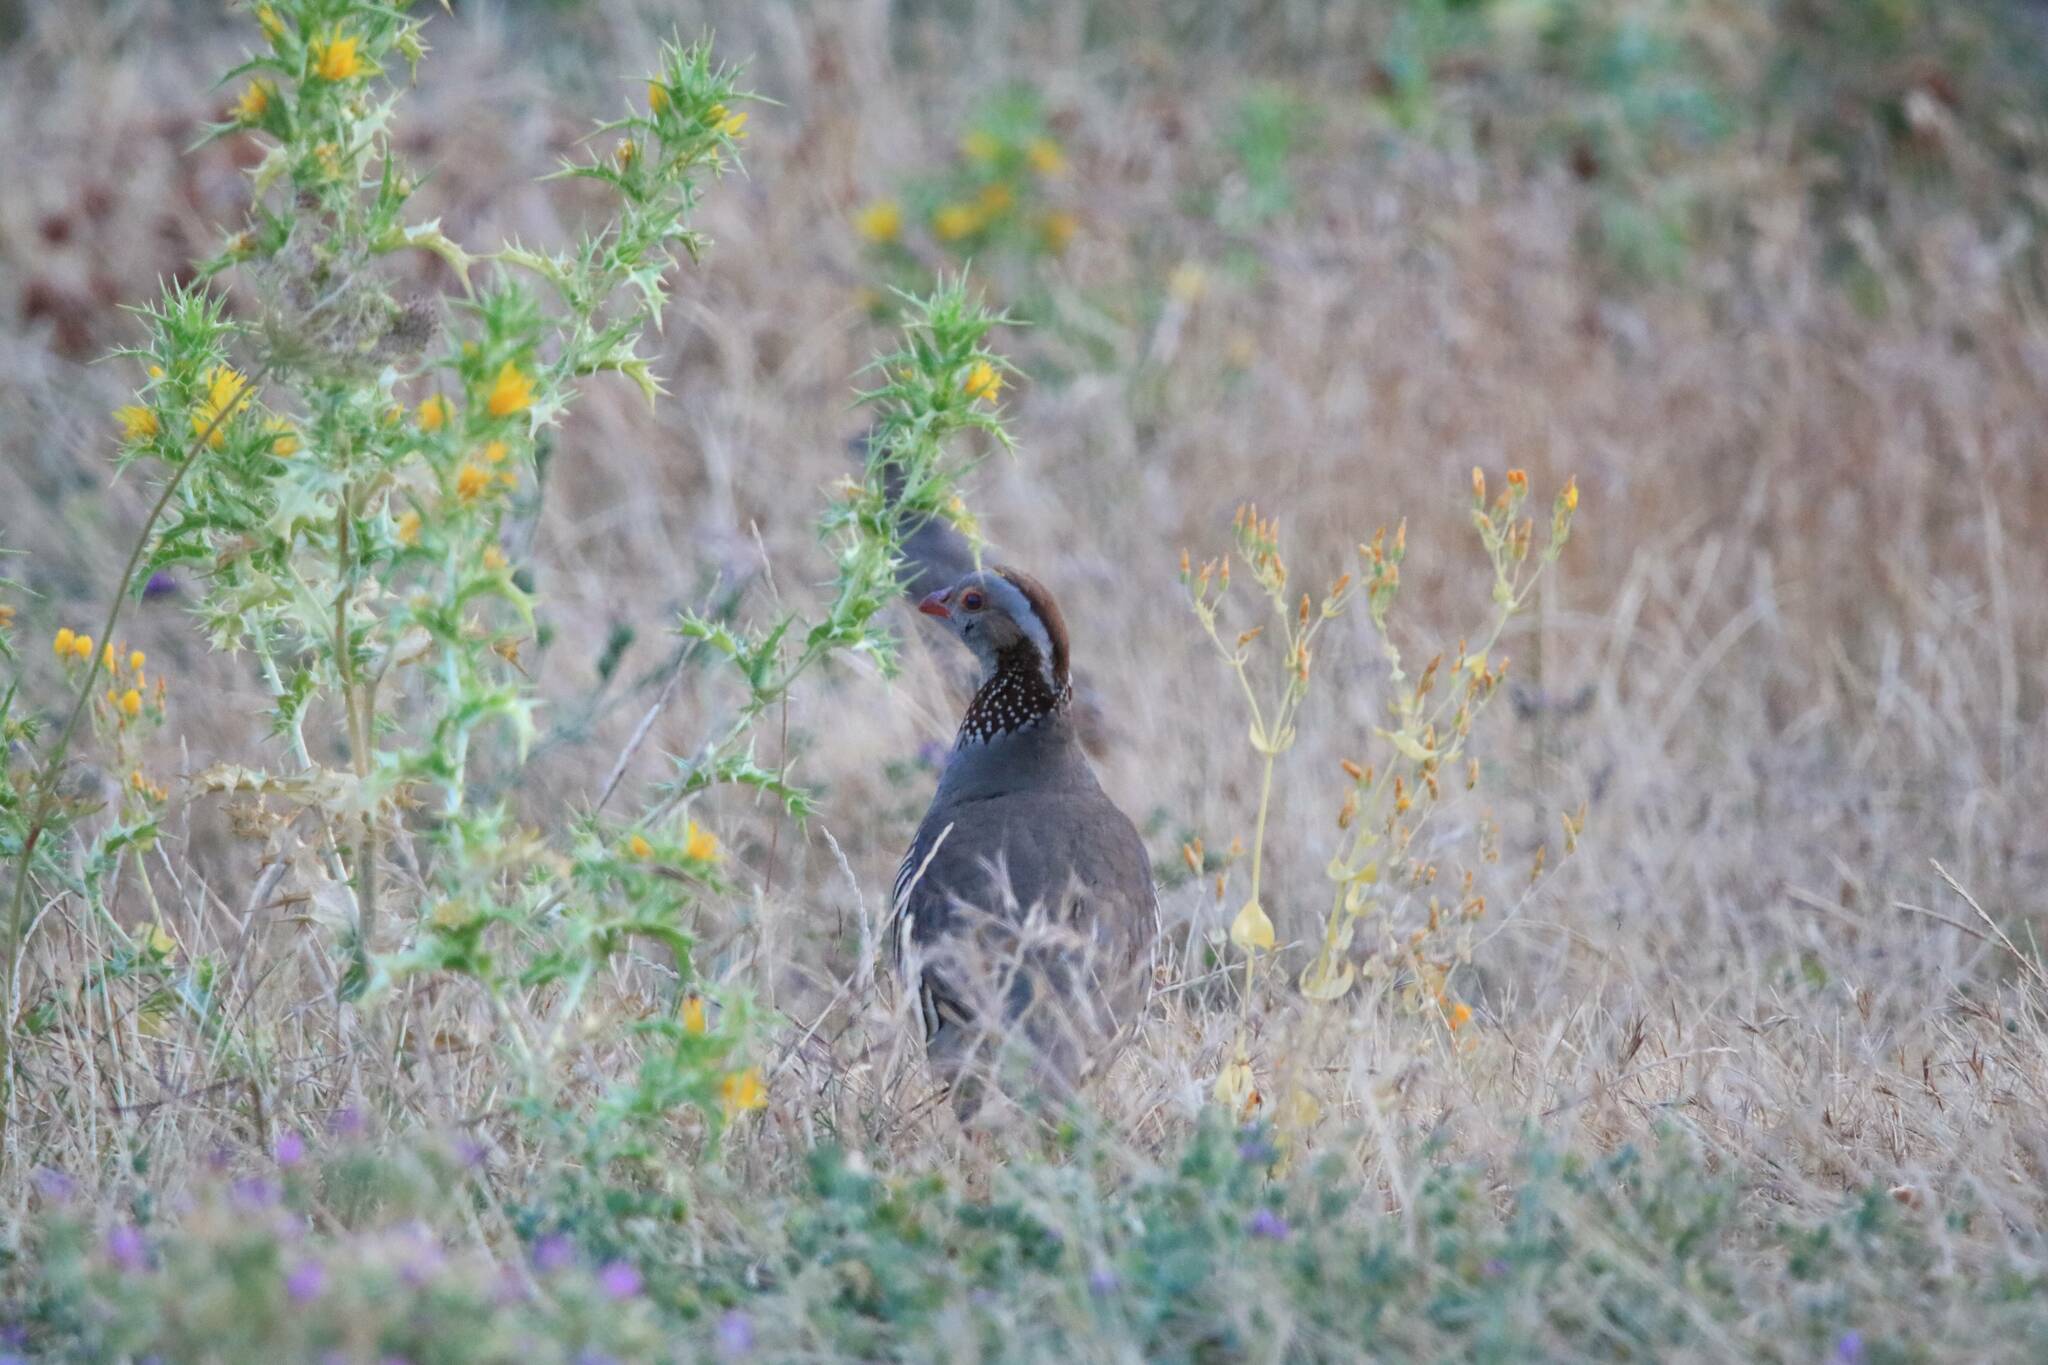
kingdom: Animalia
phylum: Chordata
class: Aves
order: Galliformes
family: Phasianidae
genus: Alectoris
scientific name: Alectoris barbara
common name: Barbary partridge
